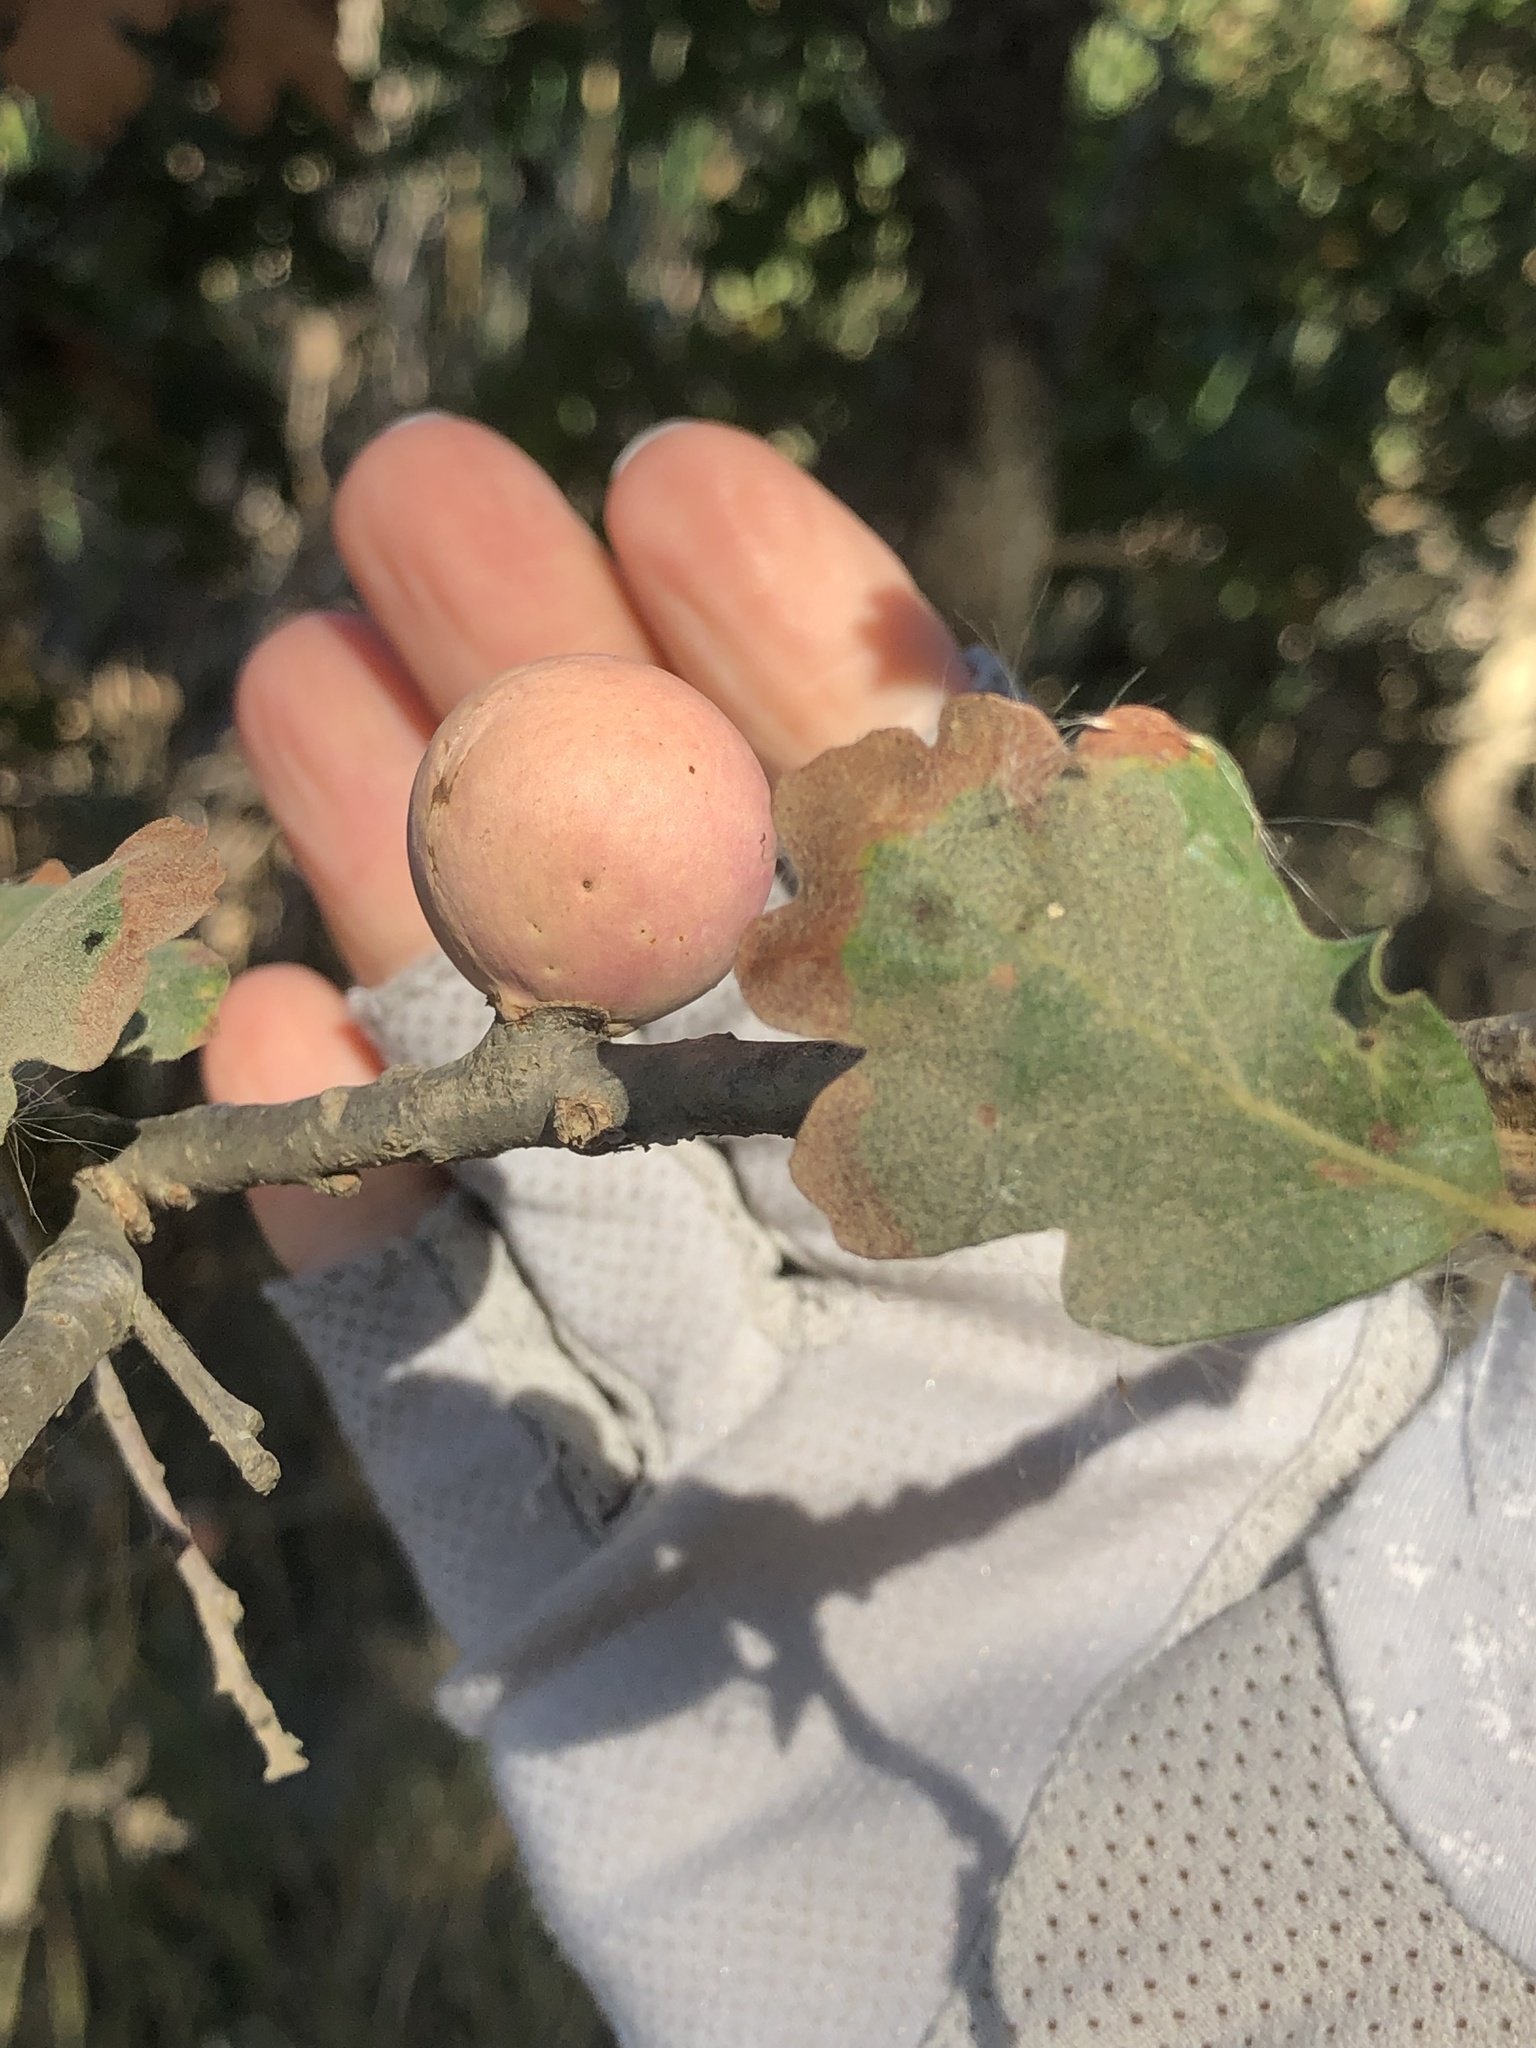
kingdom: Animalia
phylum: Arthropoda
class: Insecta
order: Hymenoptera
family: Cynipidae
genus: Andricus
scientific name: Andricus quercuscalifornicus
